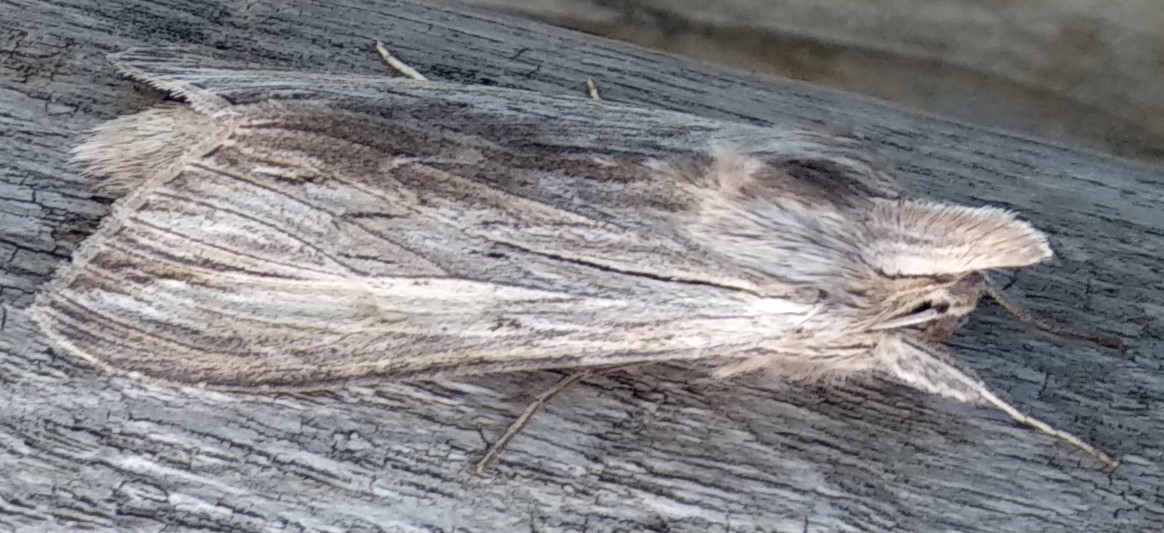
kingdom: Animalia
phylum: Arthropoda
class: Insecta
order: Lepidoptera
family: Noctuidae
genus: Cucullia
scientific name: Cucullia intermedia
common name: Goldenrod cutworm
